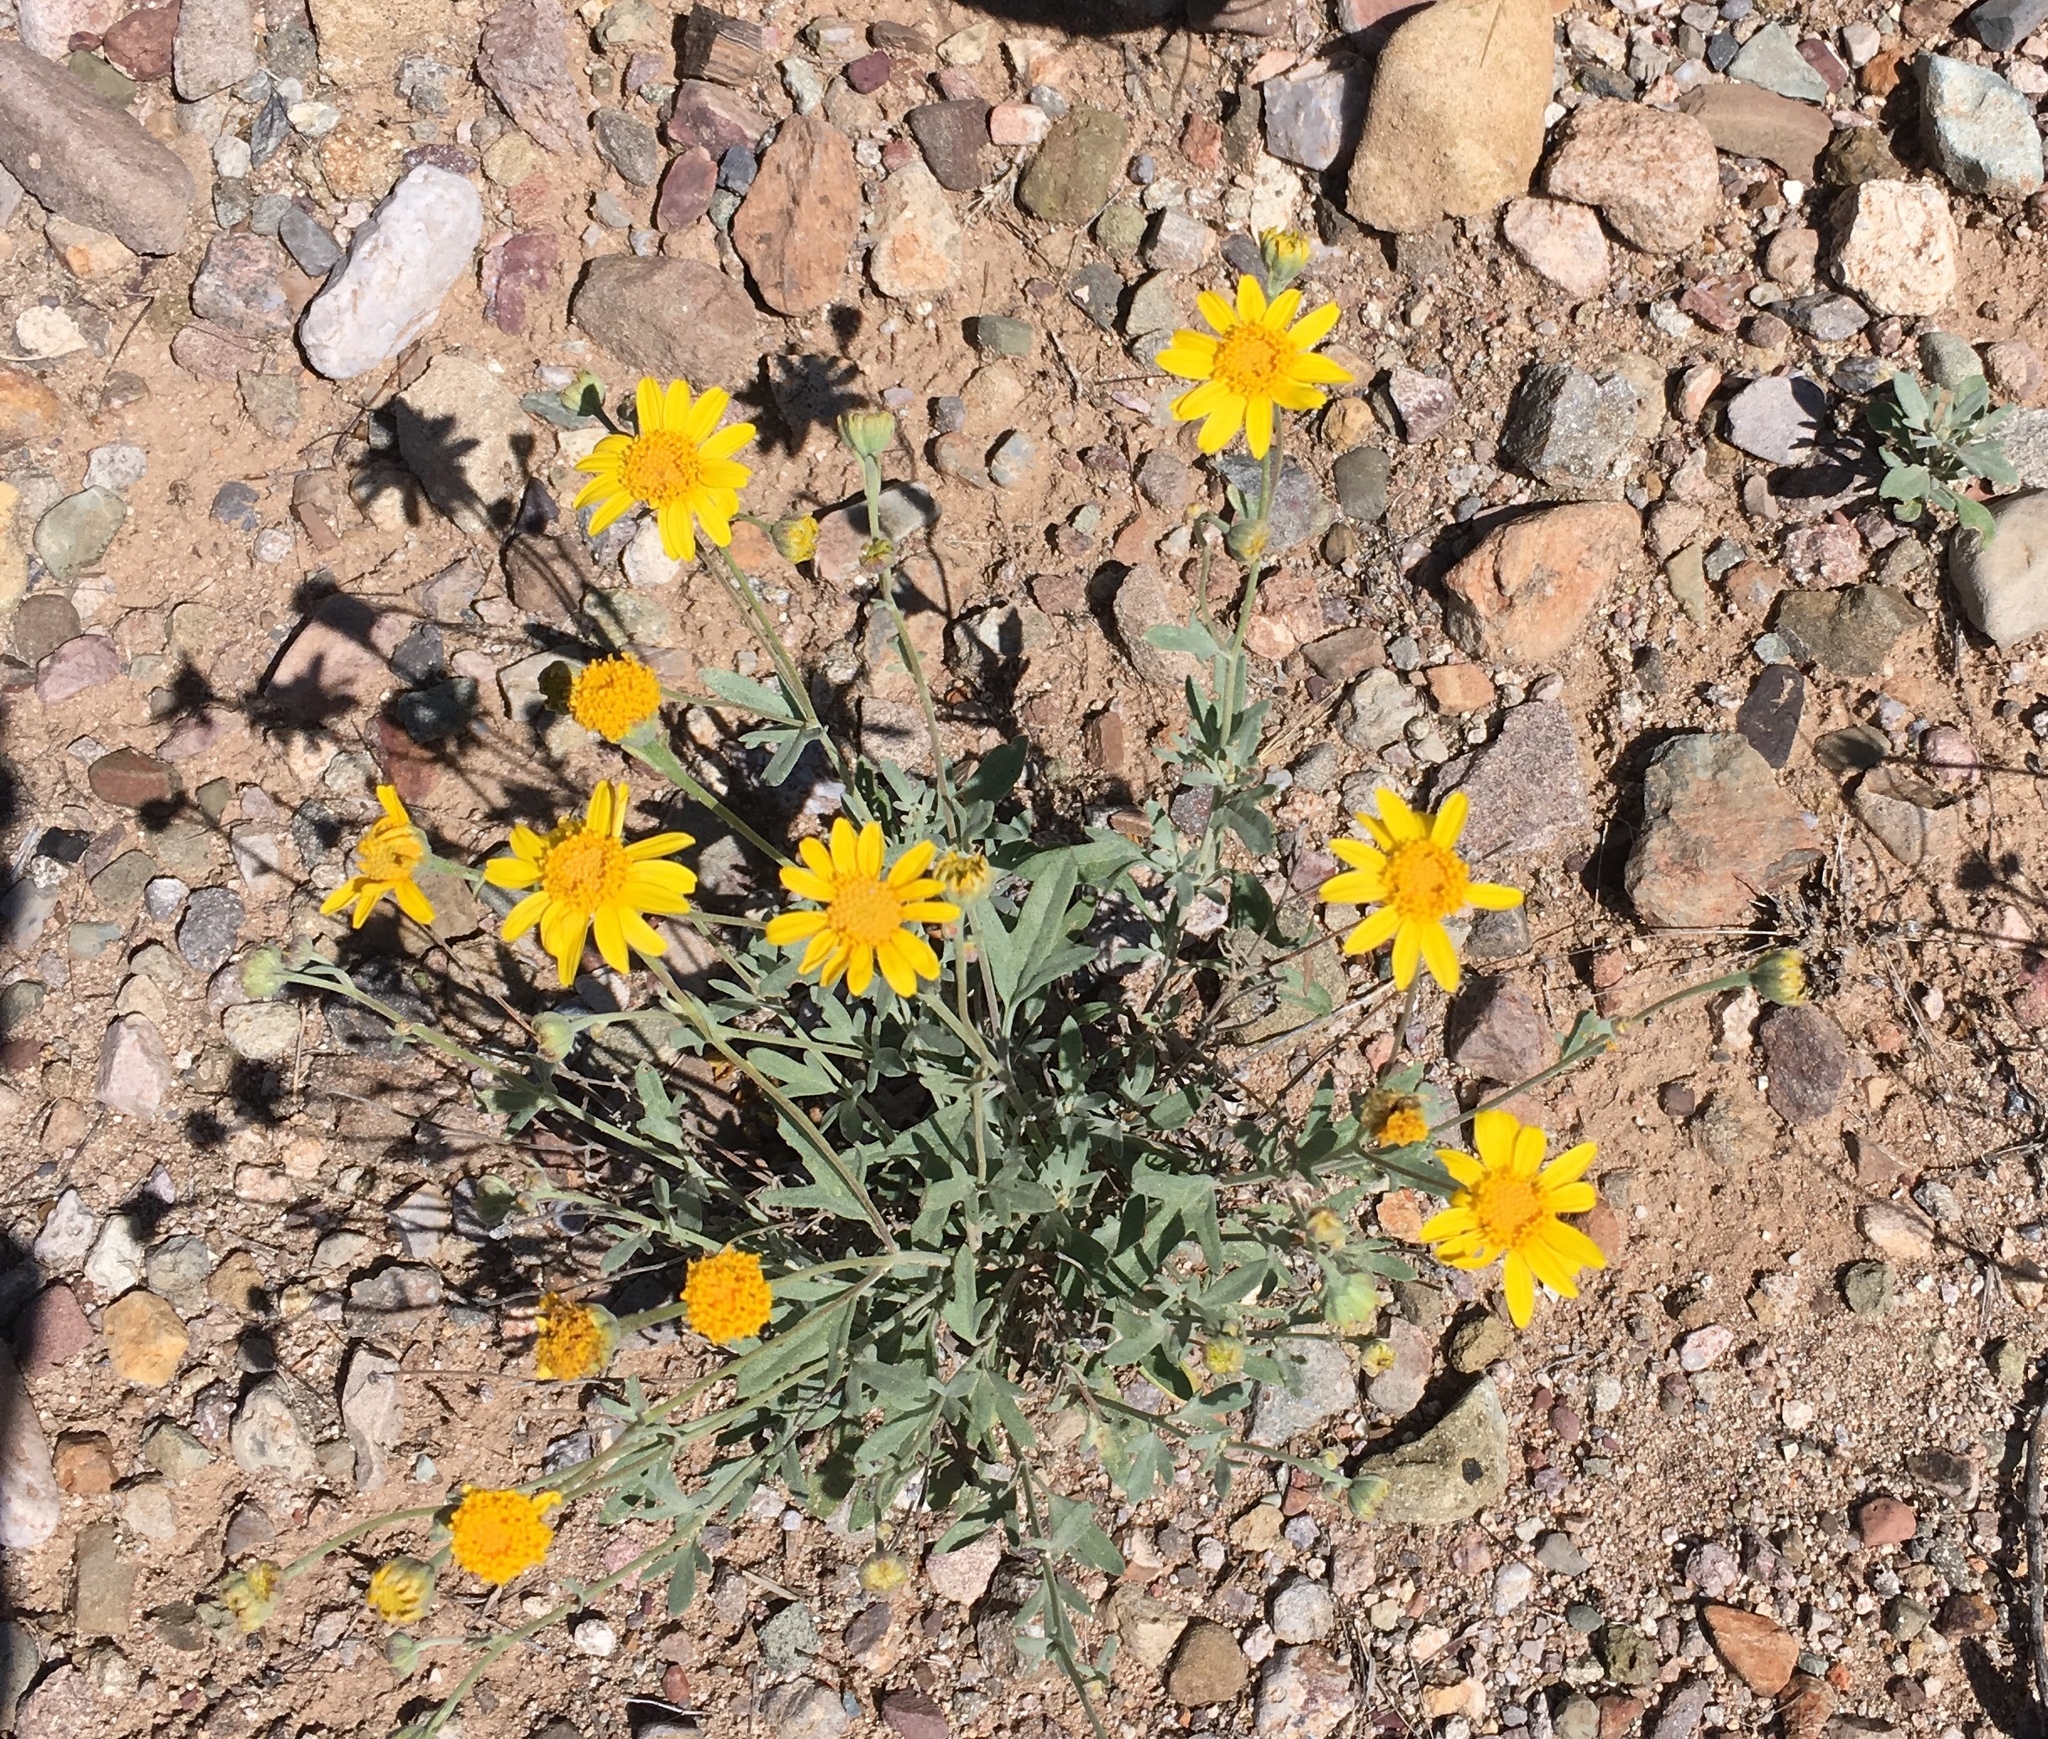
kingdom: Plantae
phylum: Tracheophyta
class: Magnoliopsida
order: Asterales
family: Asteraceae
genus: Picradeniopsis
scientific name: Picradeniopsis absinthifolia
